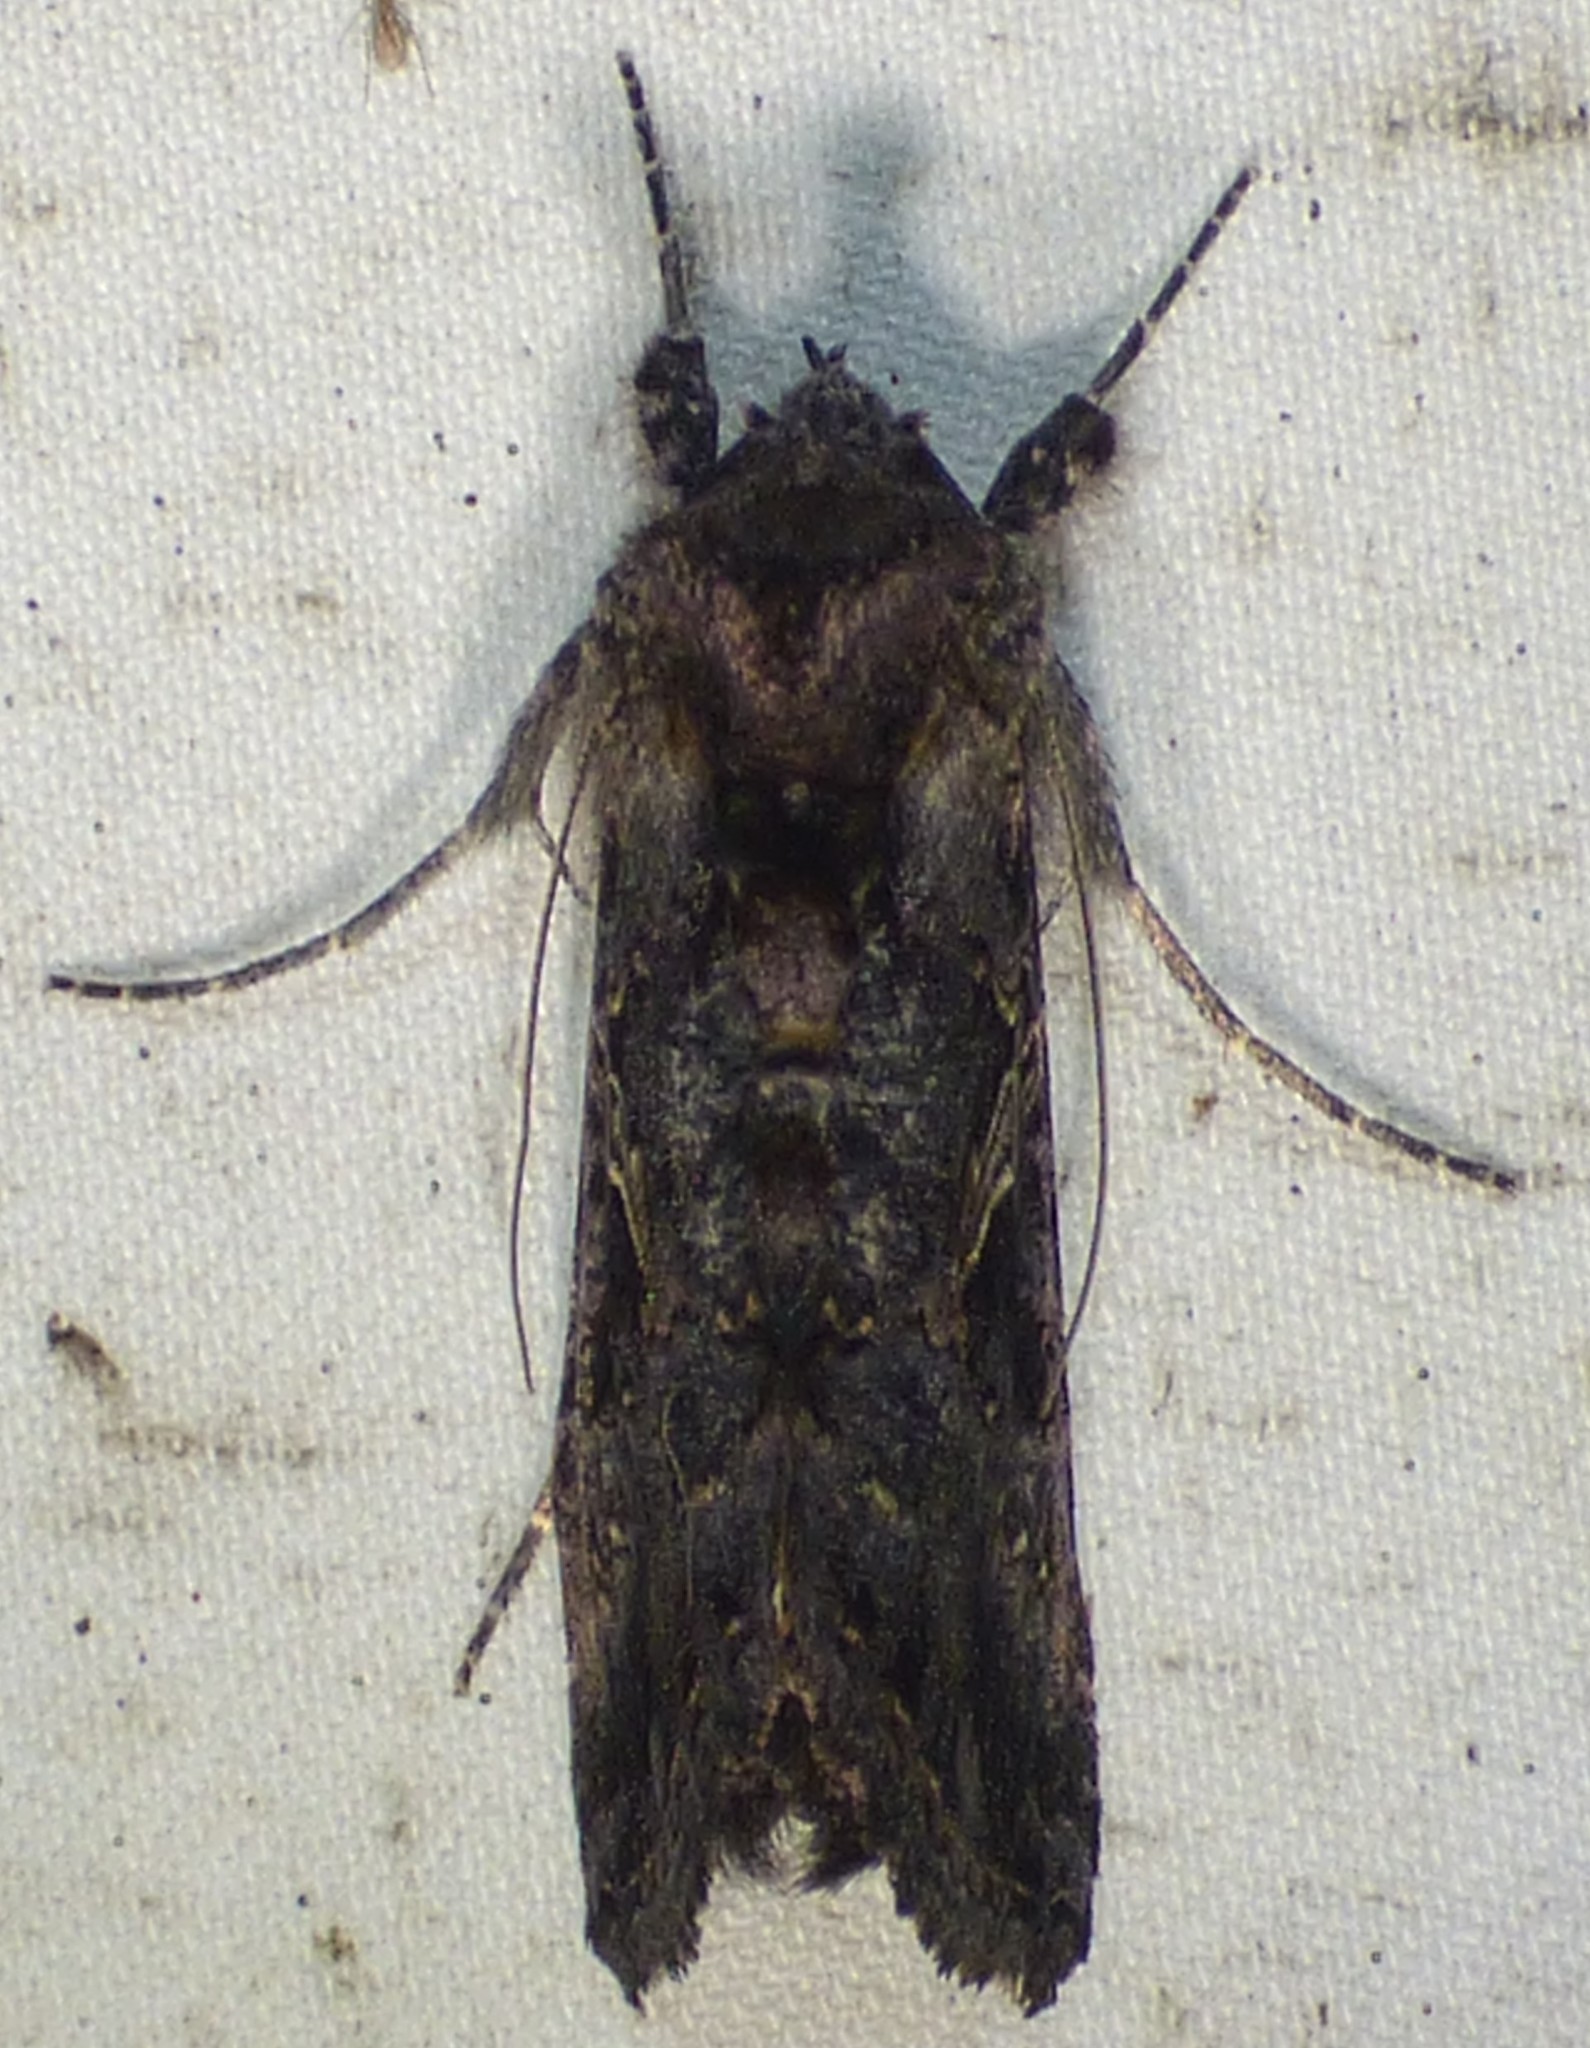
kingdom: Animalia
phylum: Arthropoda
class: Insecta
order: Lepidoptera
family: Noctuidae
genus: Ctenoplusia
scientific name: Ctenoplusia oxygramma
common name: Sharp-stigma looper moth
